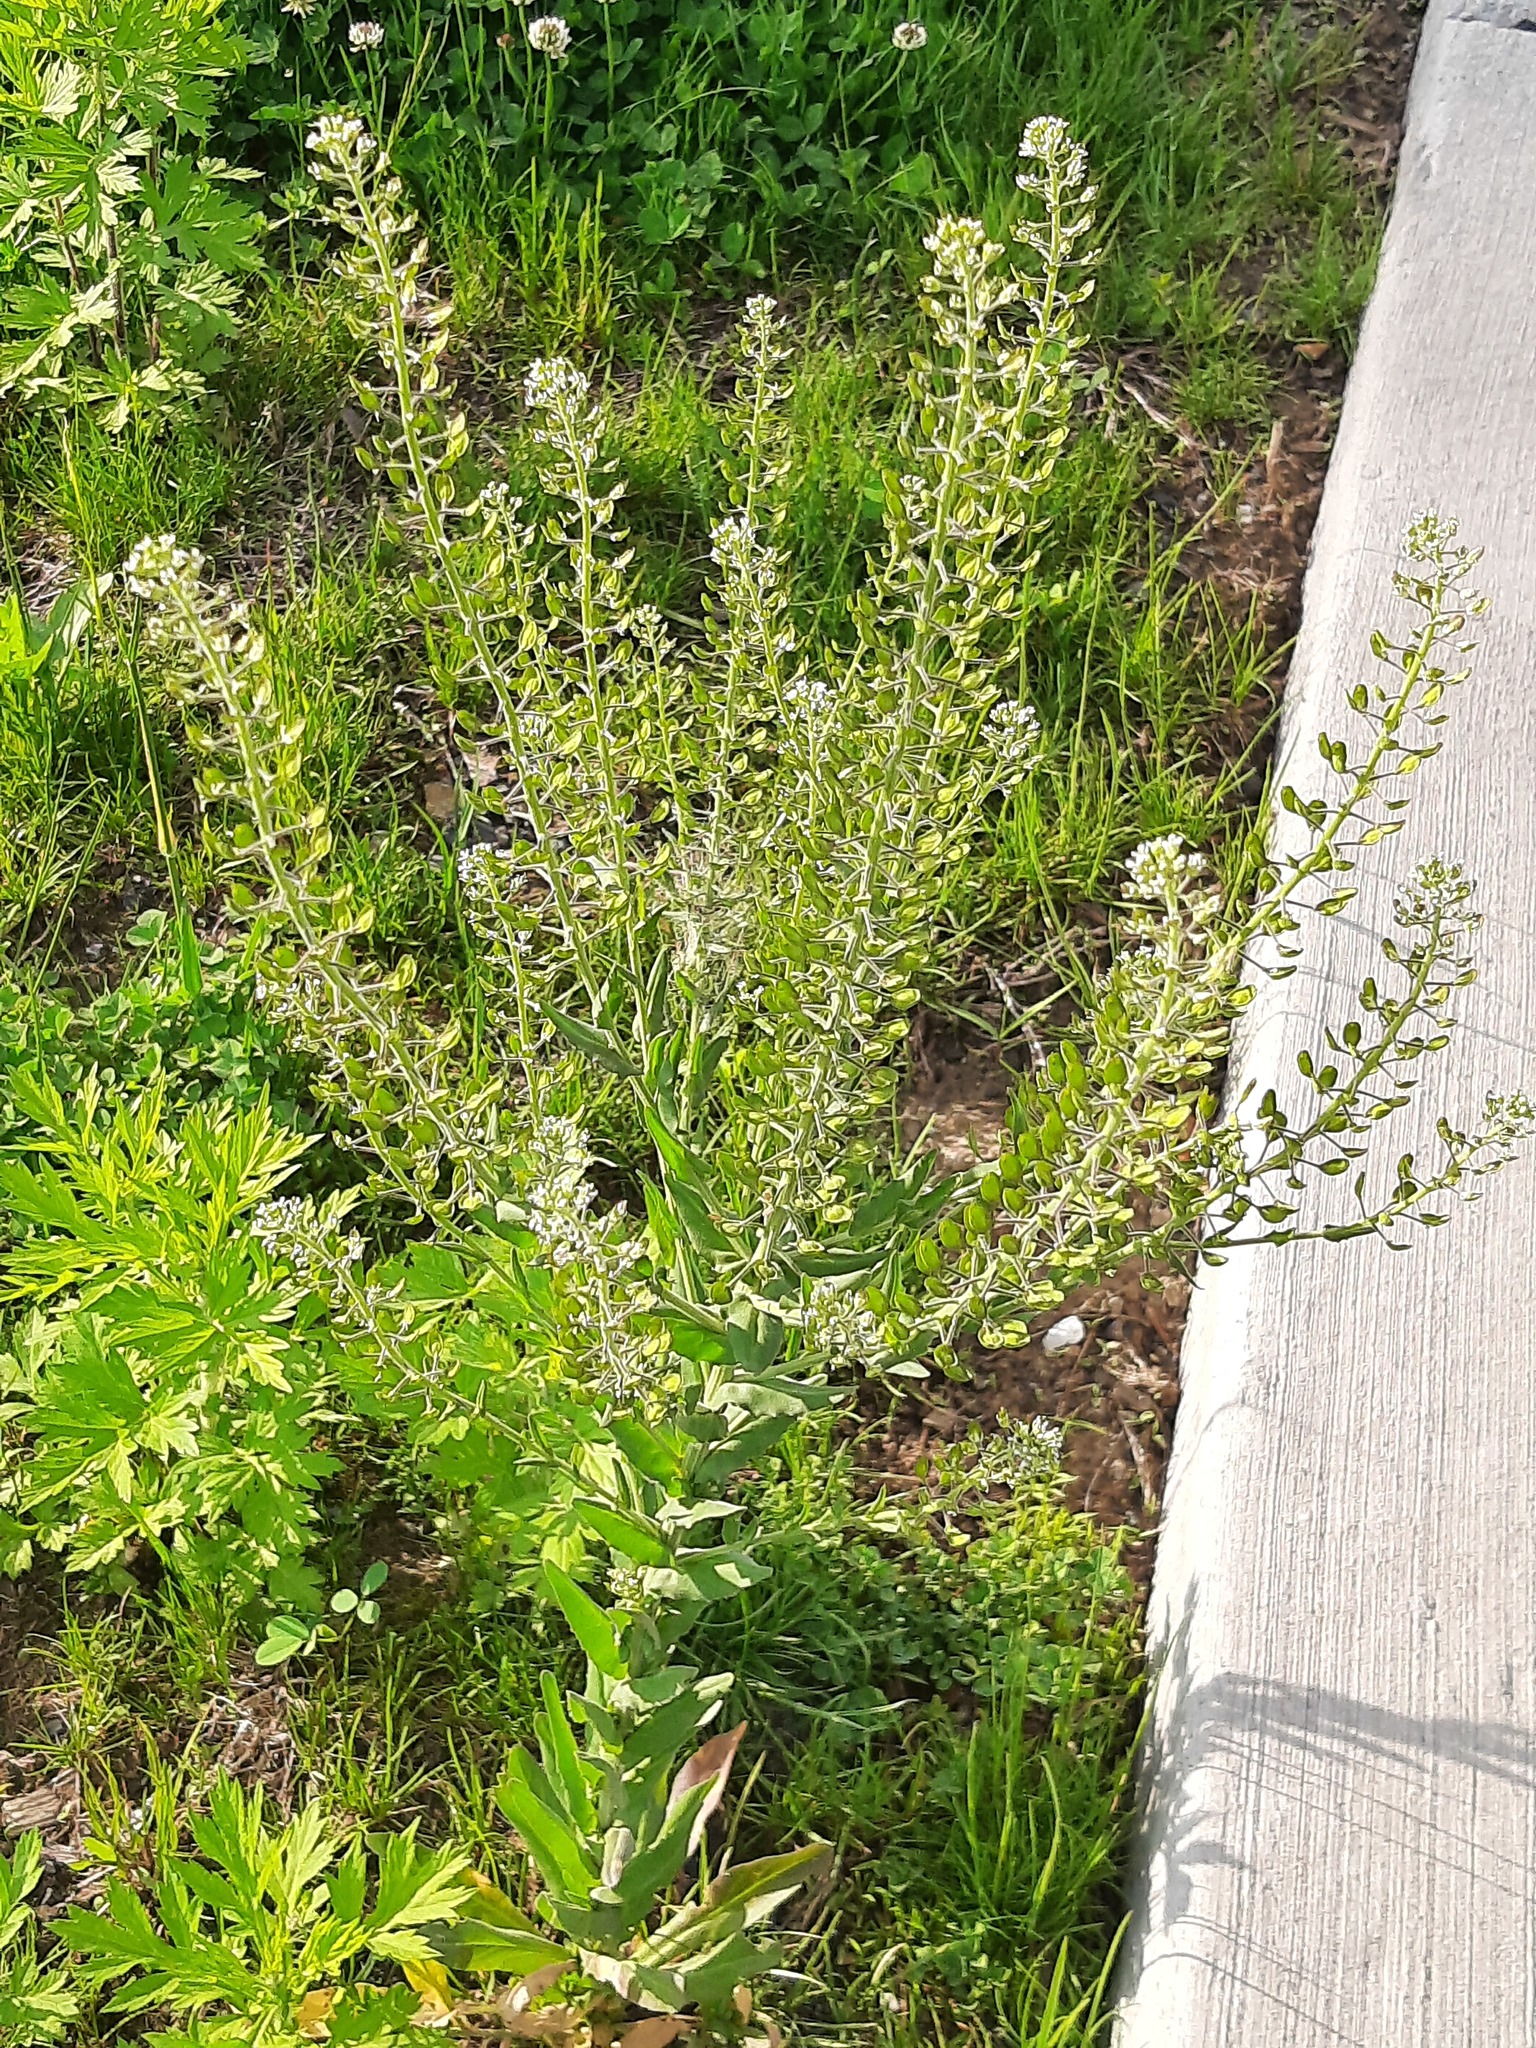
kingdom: Plantae
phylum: Tracheophyta
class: Magnoliopsida
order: Brassicales
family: Brassicaceae
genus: Lepidium
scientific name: Lepidium campestre
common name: Field pepperwort
